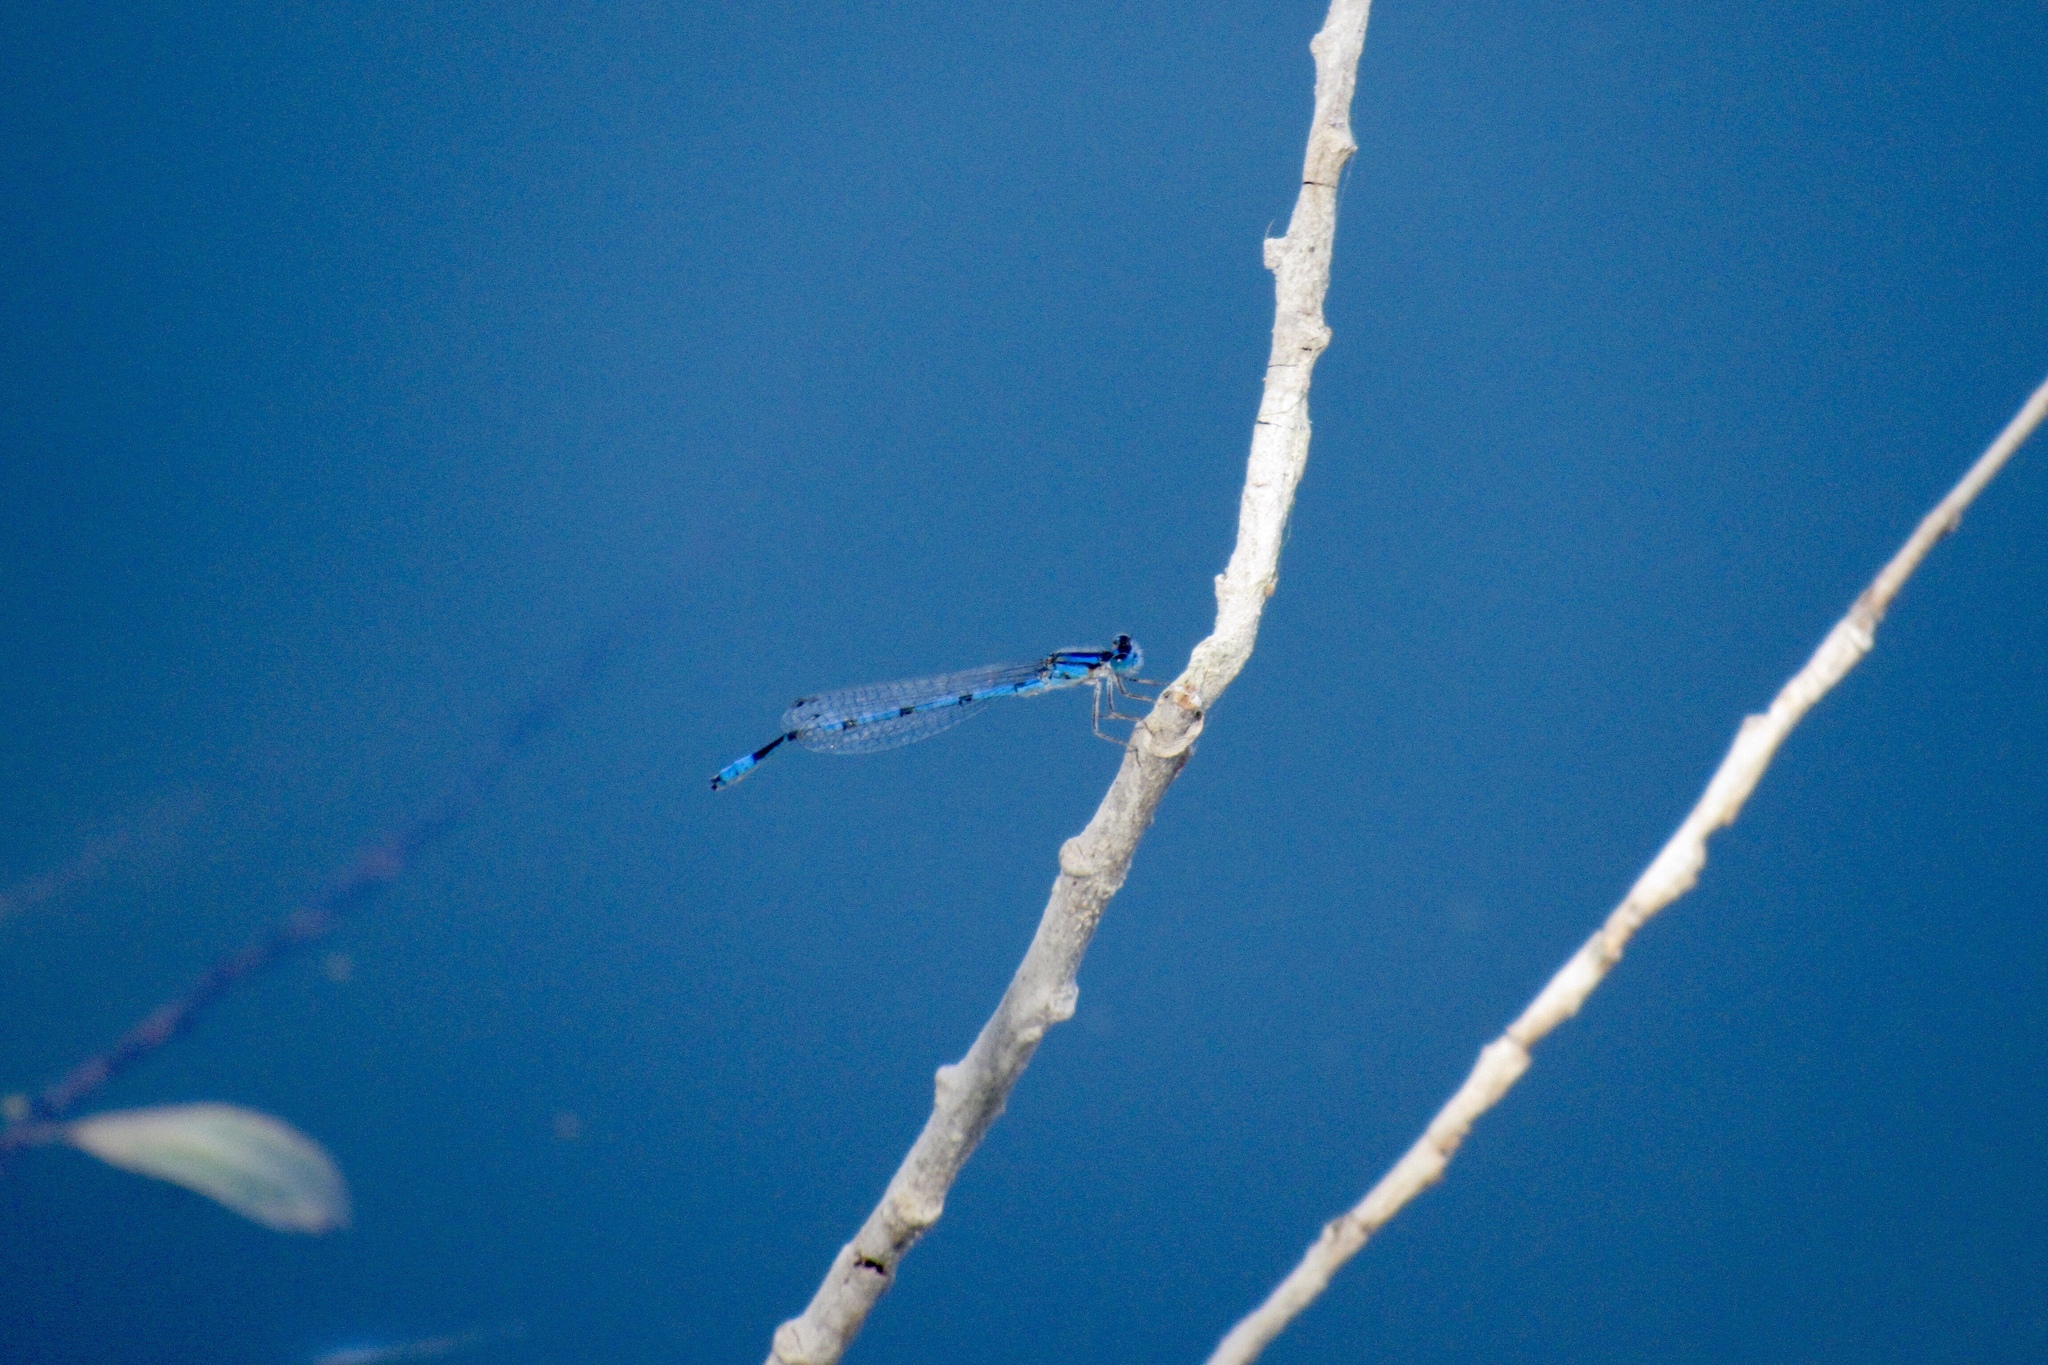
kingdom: Animalia
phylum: Arthropoda
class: Insecta
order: Odonata
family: Coenagrionidae
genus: Enallagma
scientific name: Enallagma civile
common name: Damselfly
